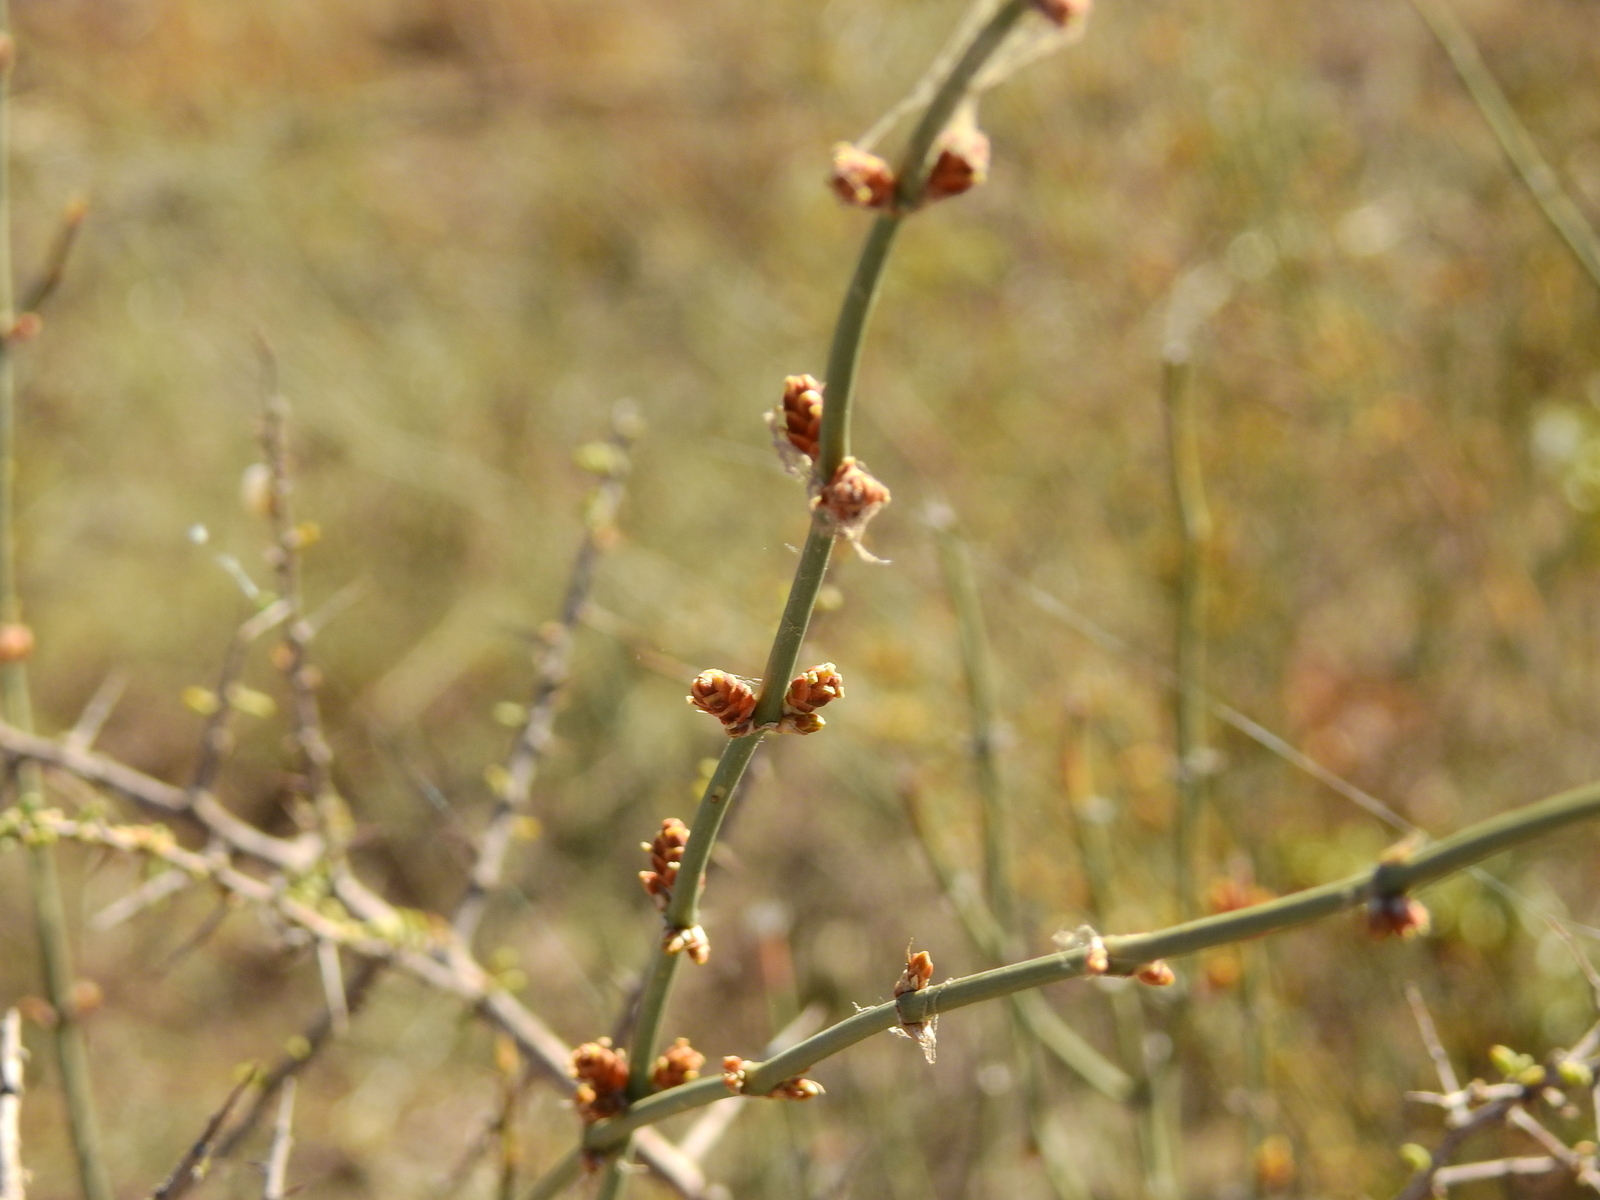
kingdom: Plantae
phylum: Tracheophyta
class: Gnetopsida
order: Ephedrales
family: Ephedraceae
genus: Ephedra
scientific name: Ephedra triandra
